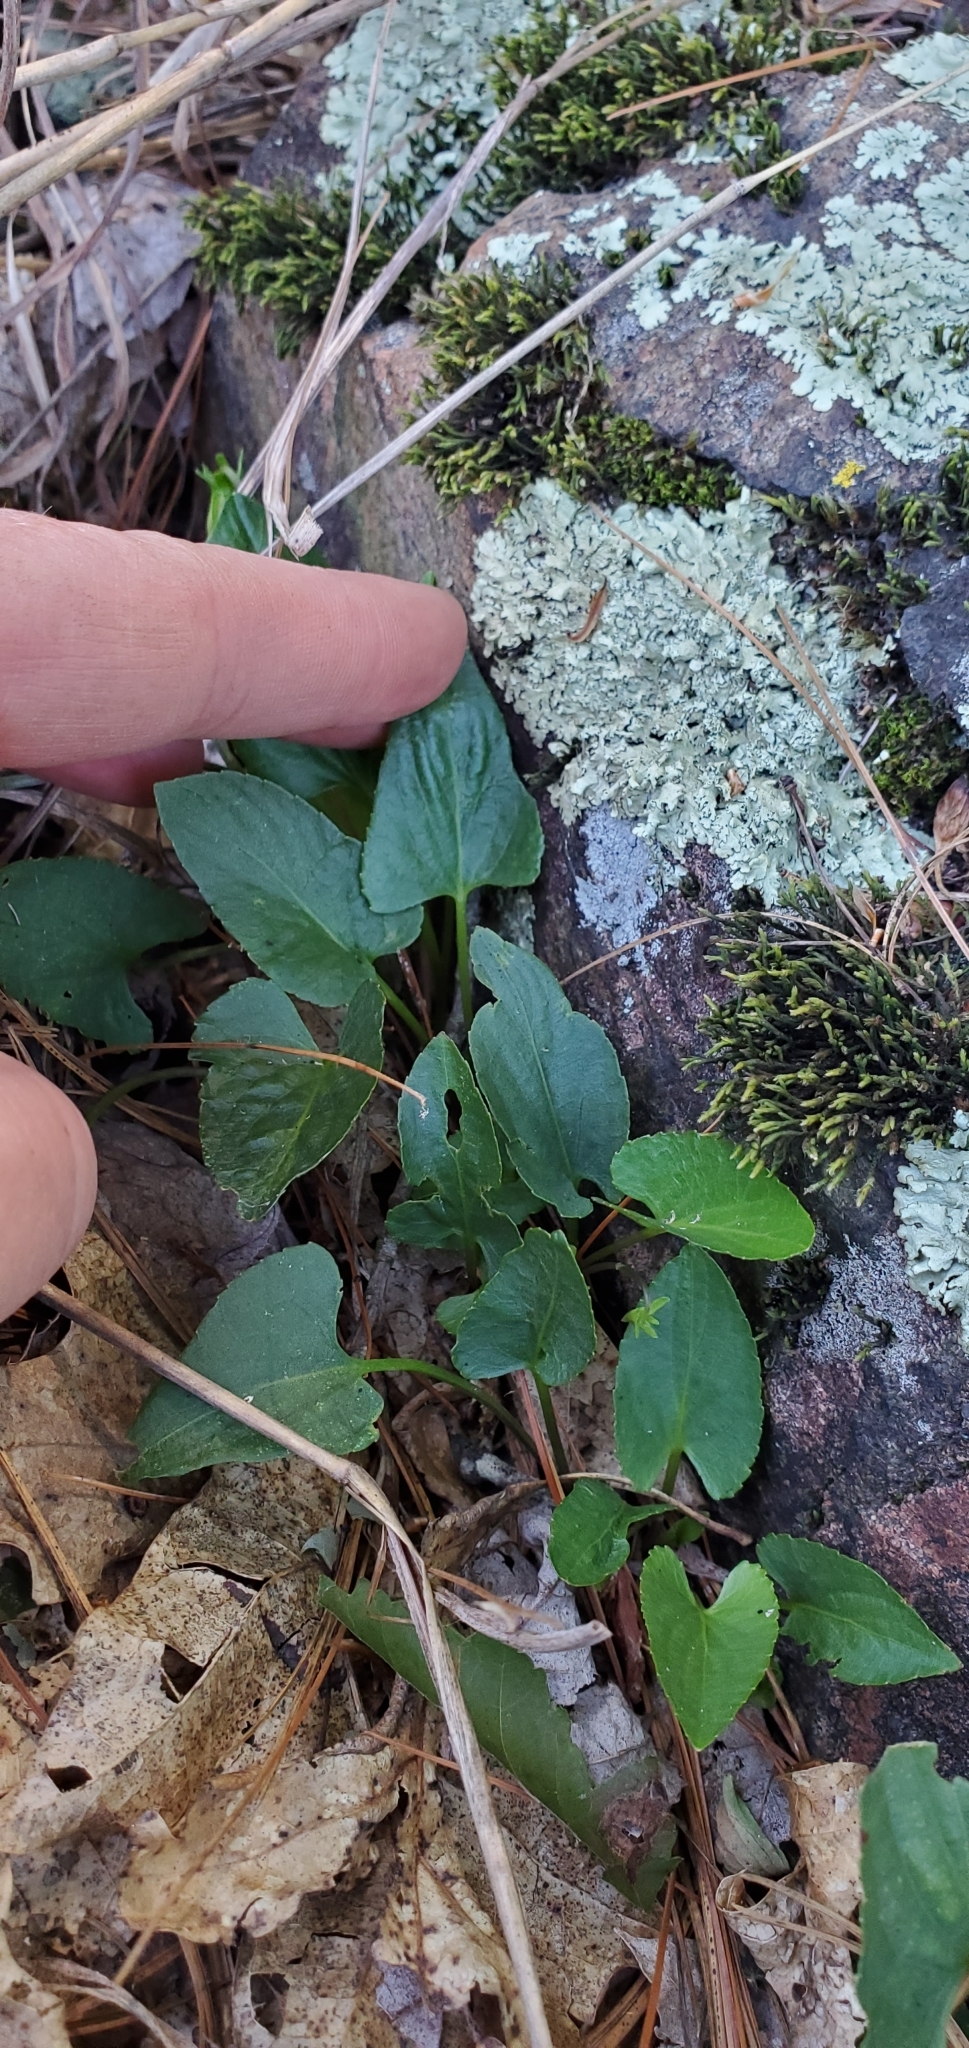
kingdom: Plantae
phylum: Tracheophyta
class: Magnoliopsida
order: Malpighiales
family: Violaceae
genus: Viola
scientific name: Viola sagittata
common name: Arrowhead violet
